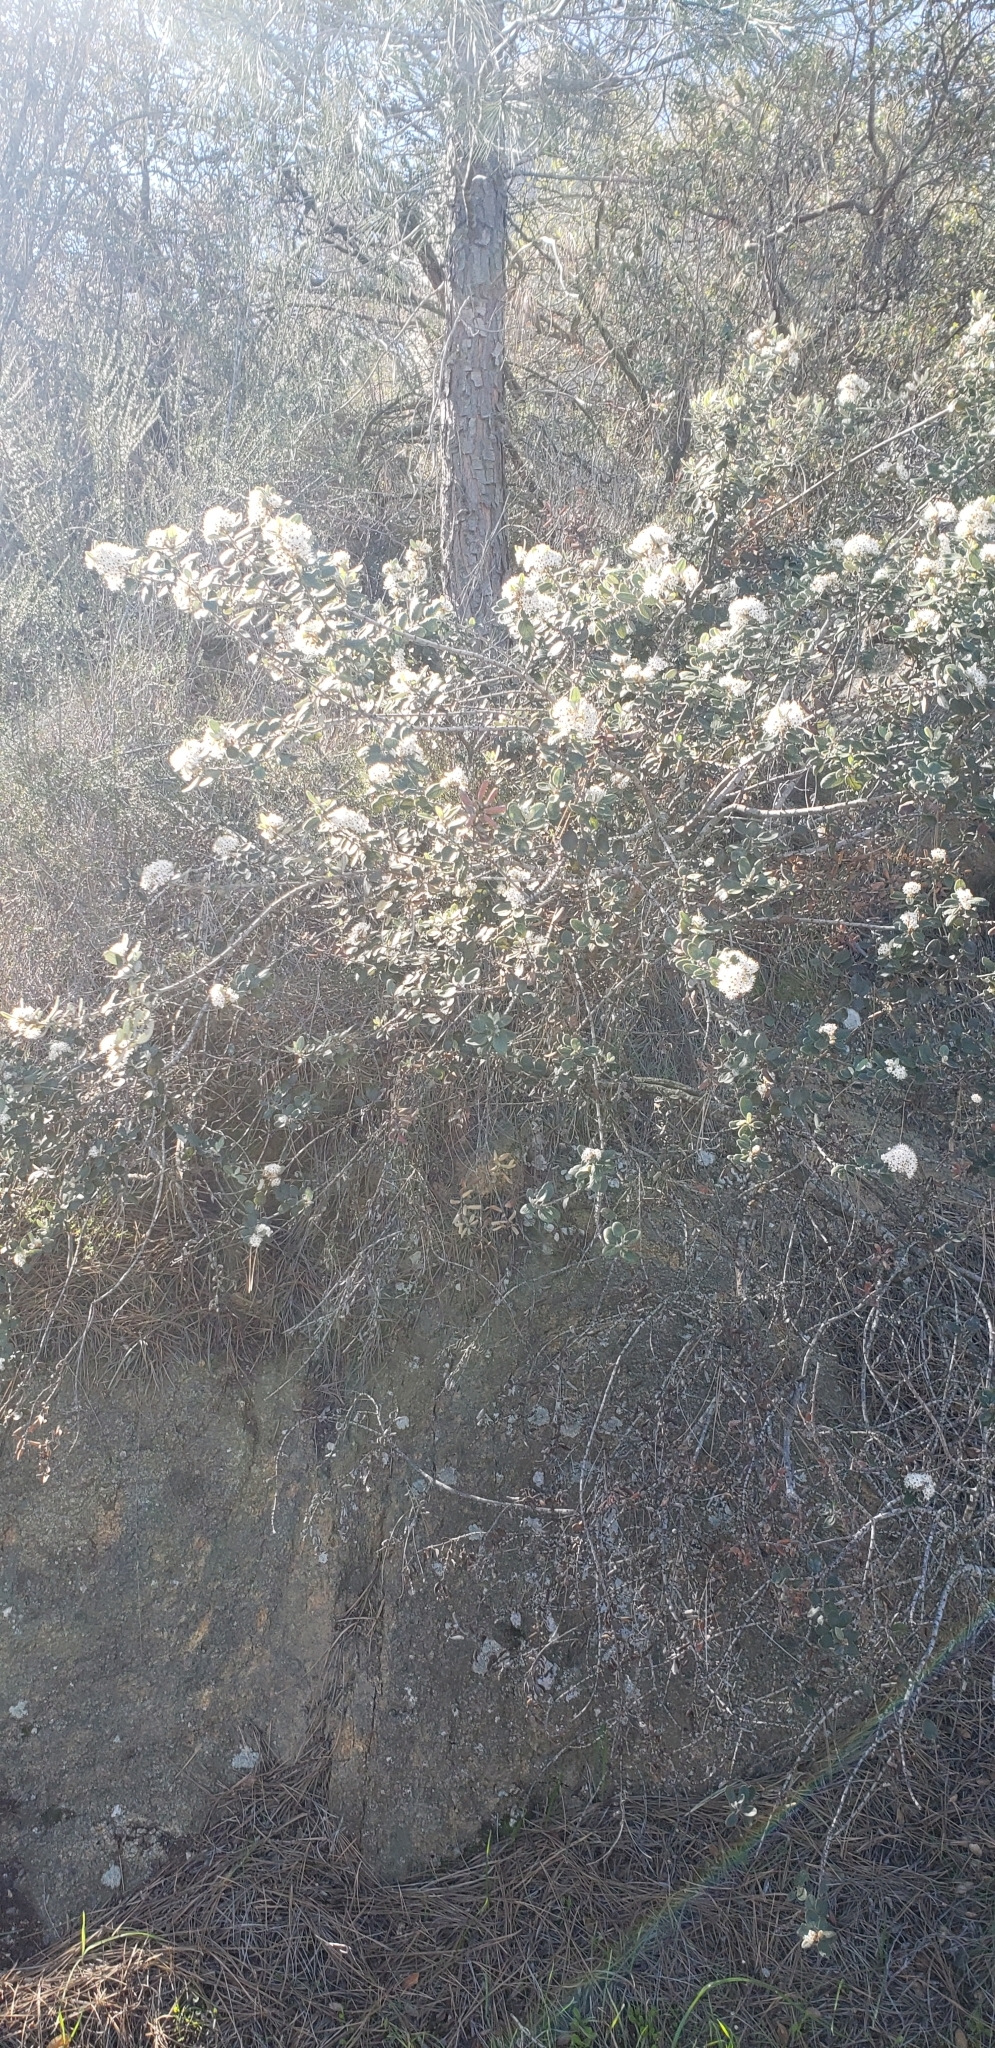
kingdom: Plantae
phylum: Tracheophyta
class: Magnoliopsida
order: Rosales
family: Rhamnaceae
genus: Ceanothus
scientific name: Ceanothus crassifolius
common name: Hoaryleaf ceanothus
